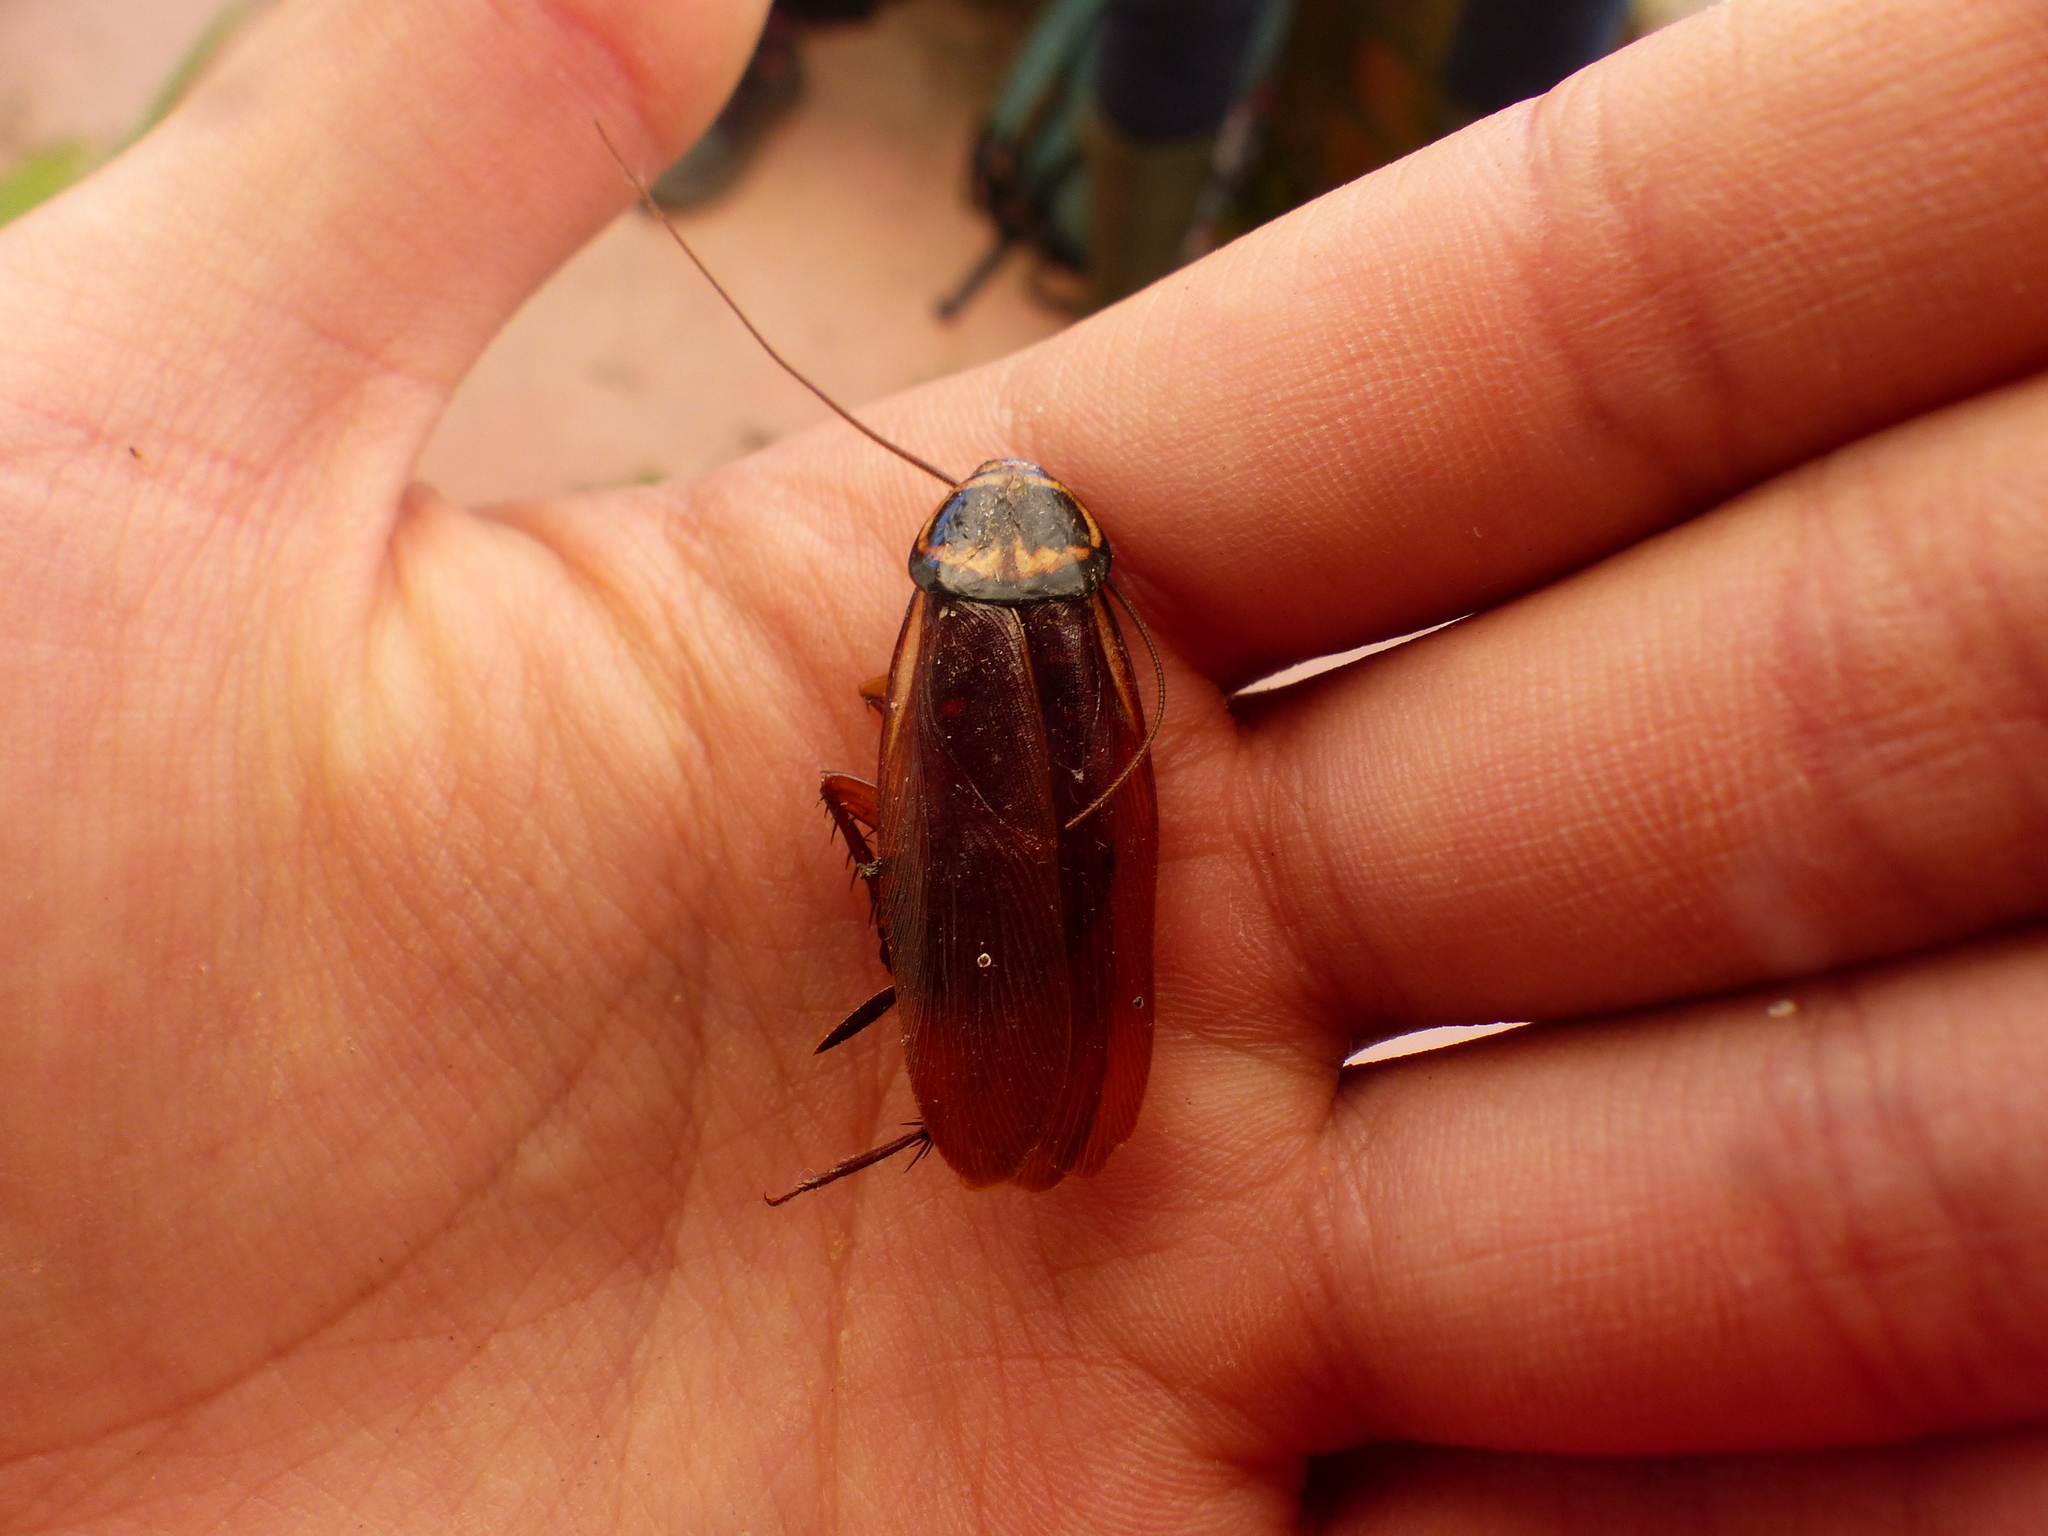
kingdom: Animalia
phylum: Arthropoda
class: Insecta
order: Blattodea
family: Blattidae
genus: Periplaneta
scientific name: Periplaneta australasiae
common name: Australian cockroach
